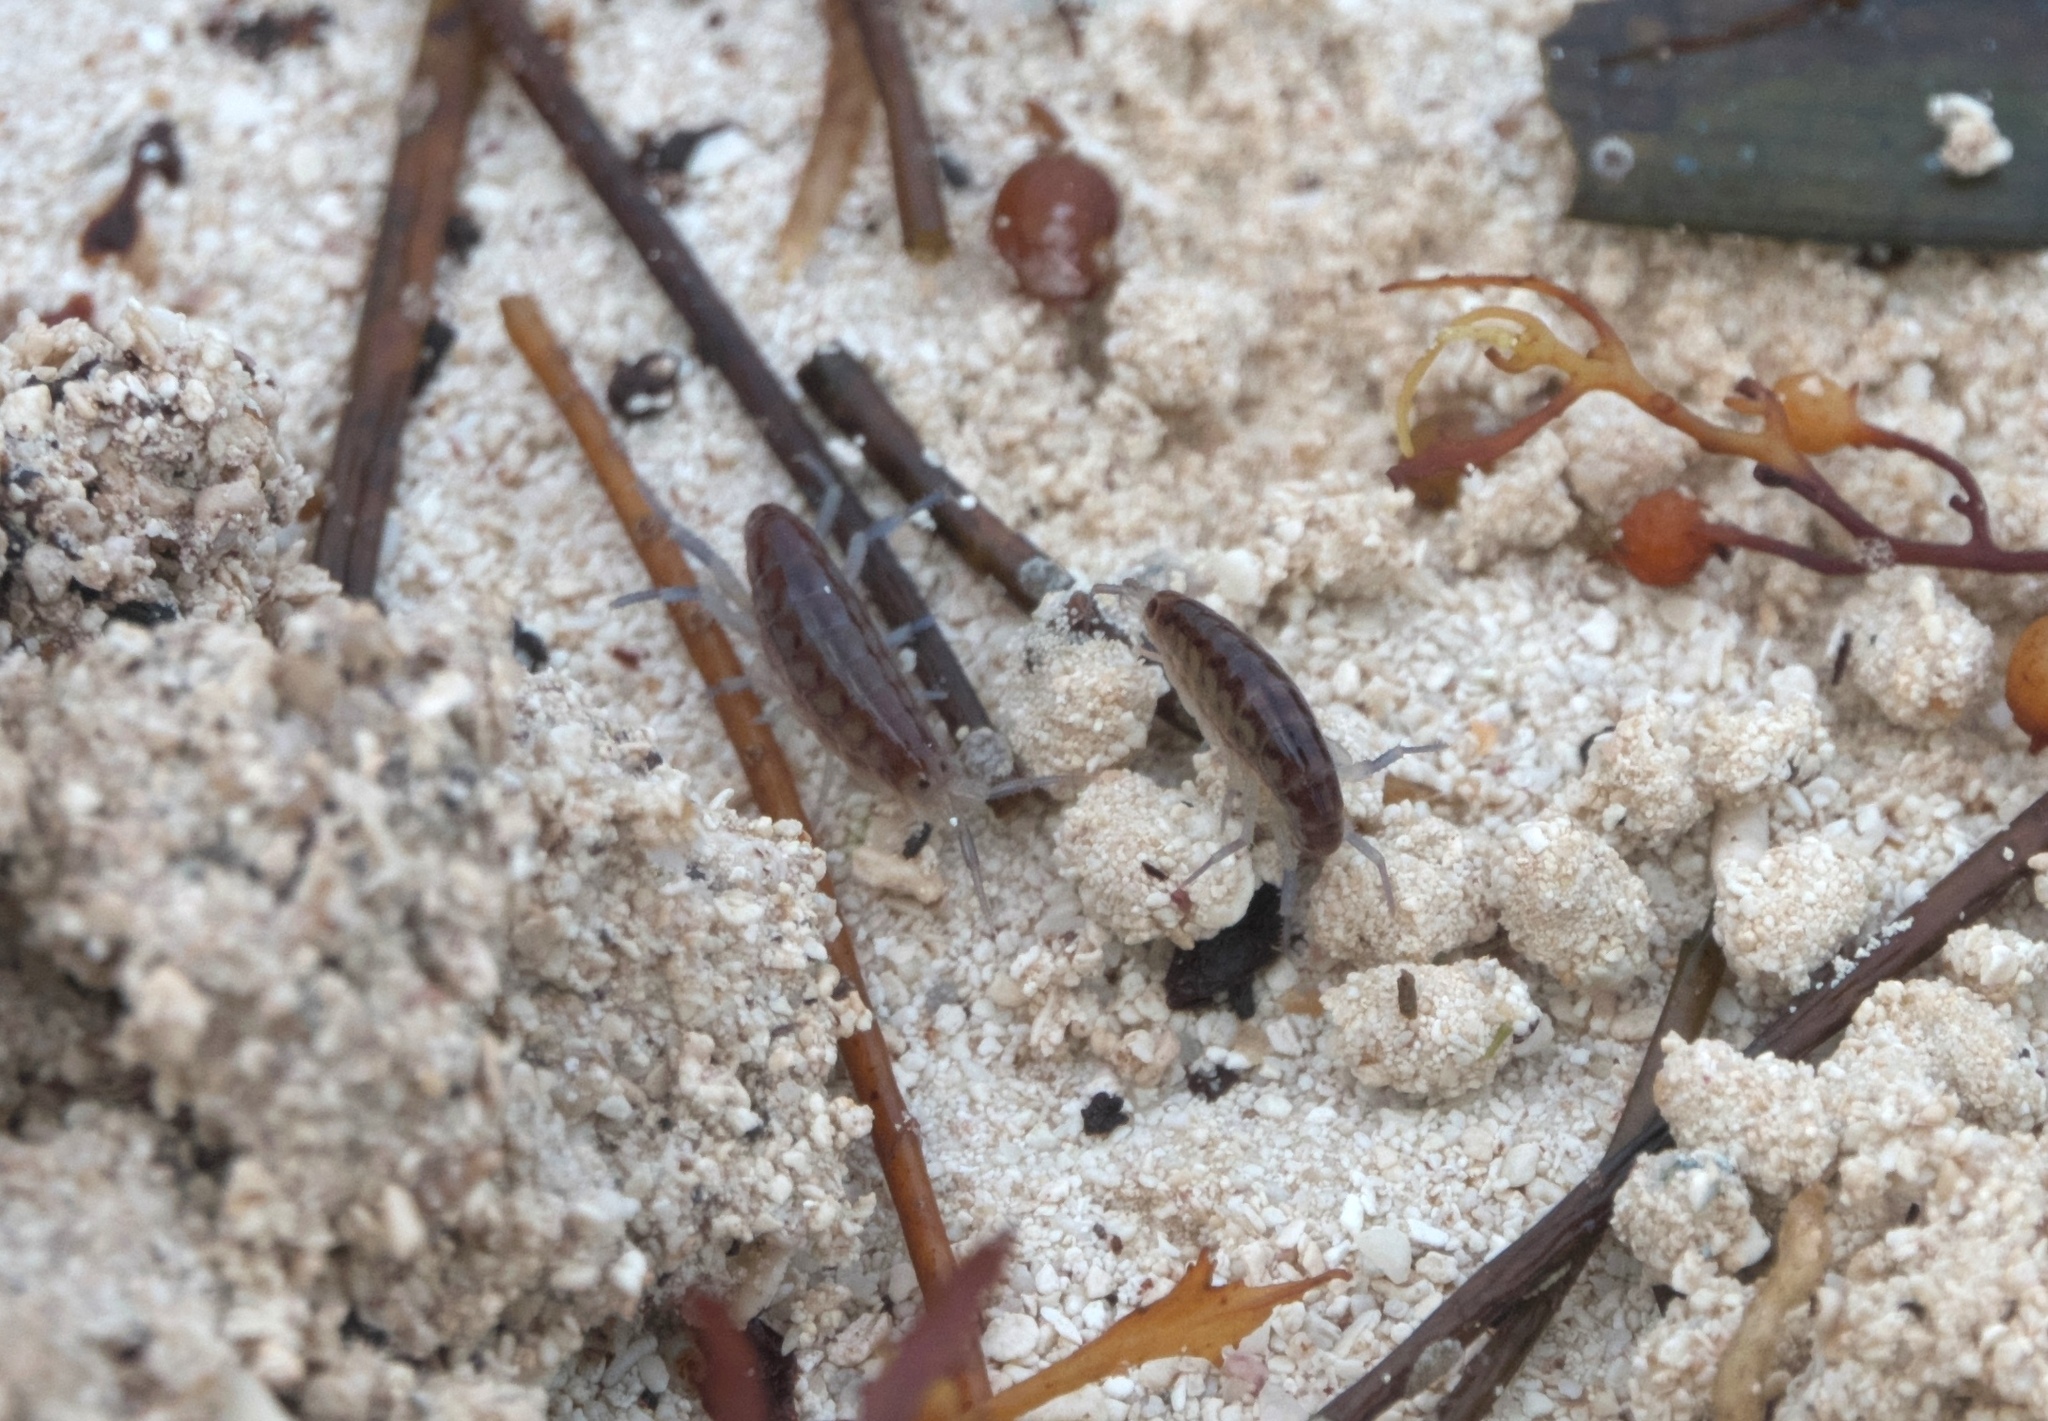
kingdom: Animalia
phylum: Arthropoda
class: Malacostraca
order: Amphipoda
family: Talitridae
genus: Mexorchestia
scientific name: Mexorchestia carpenteri
